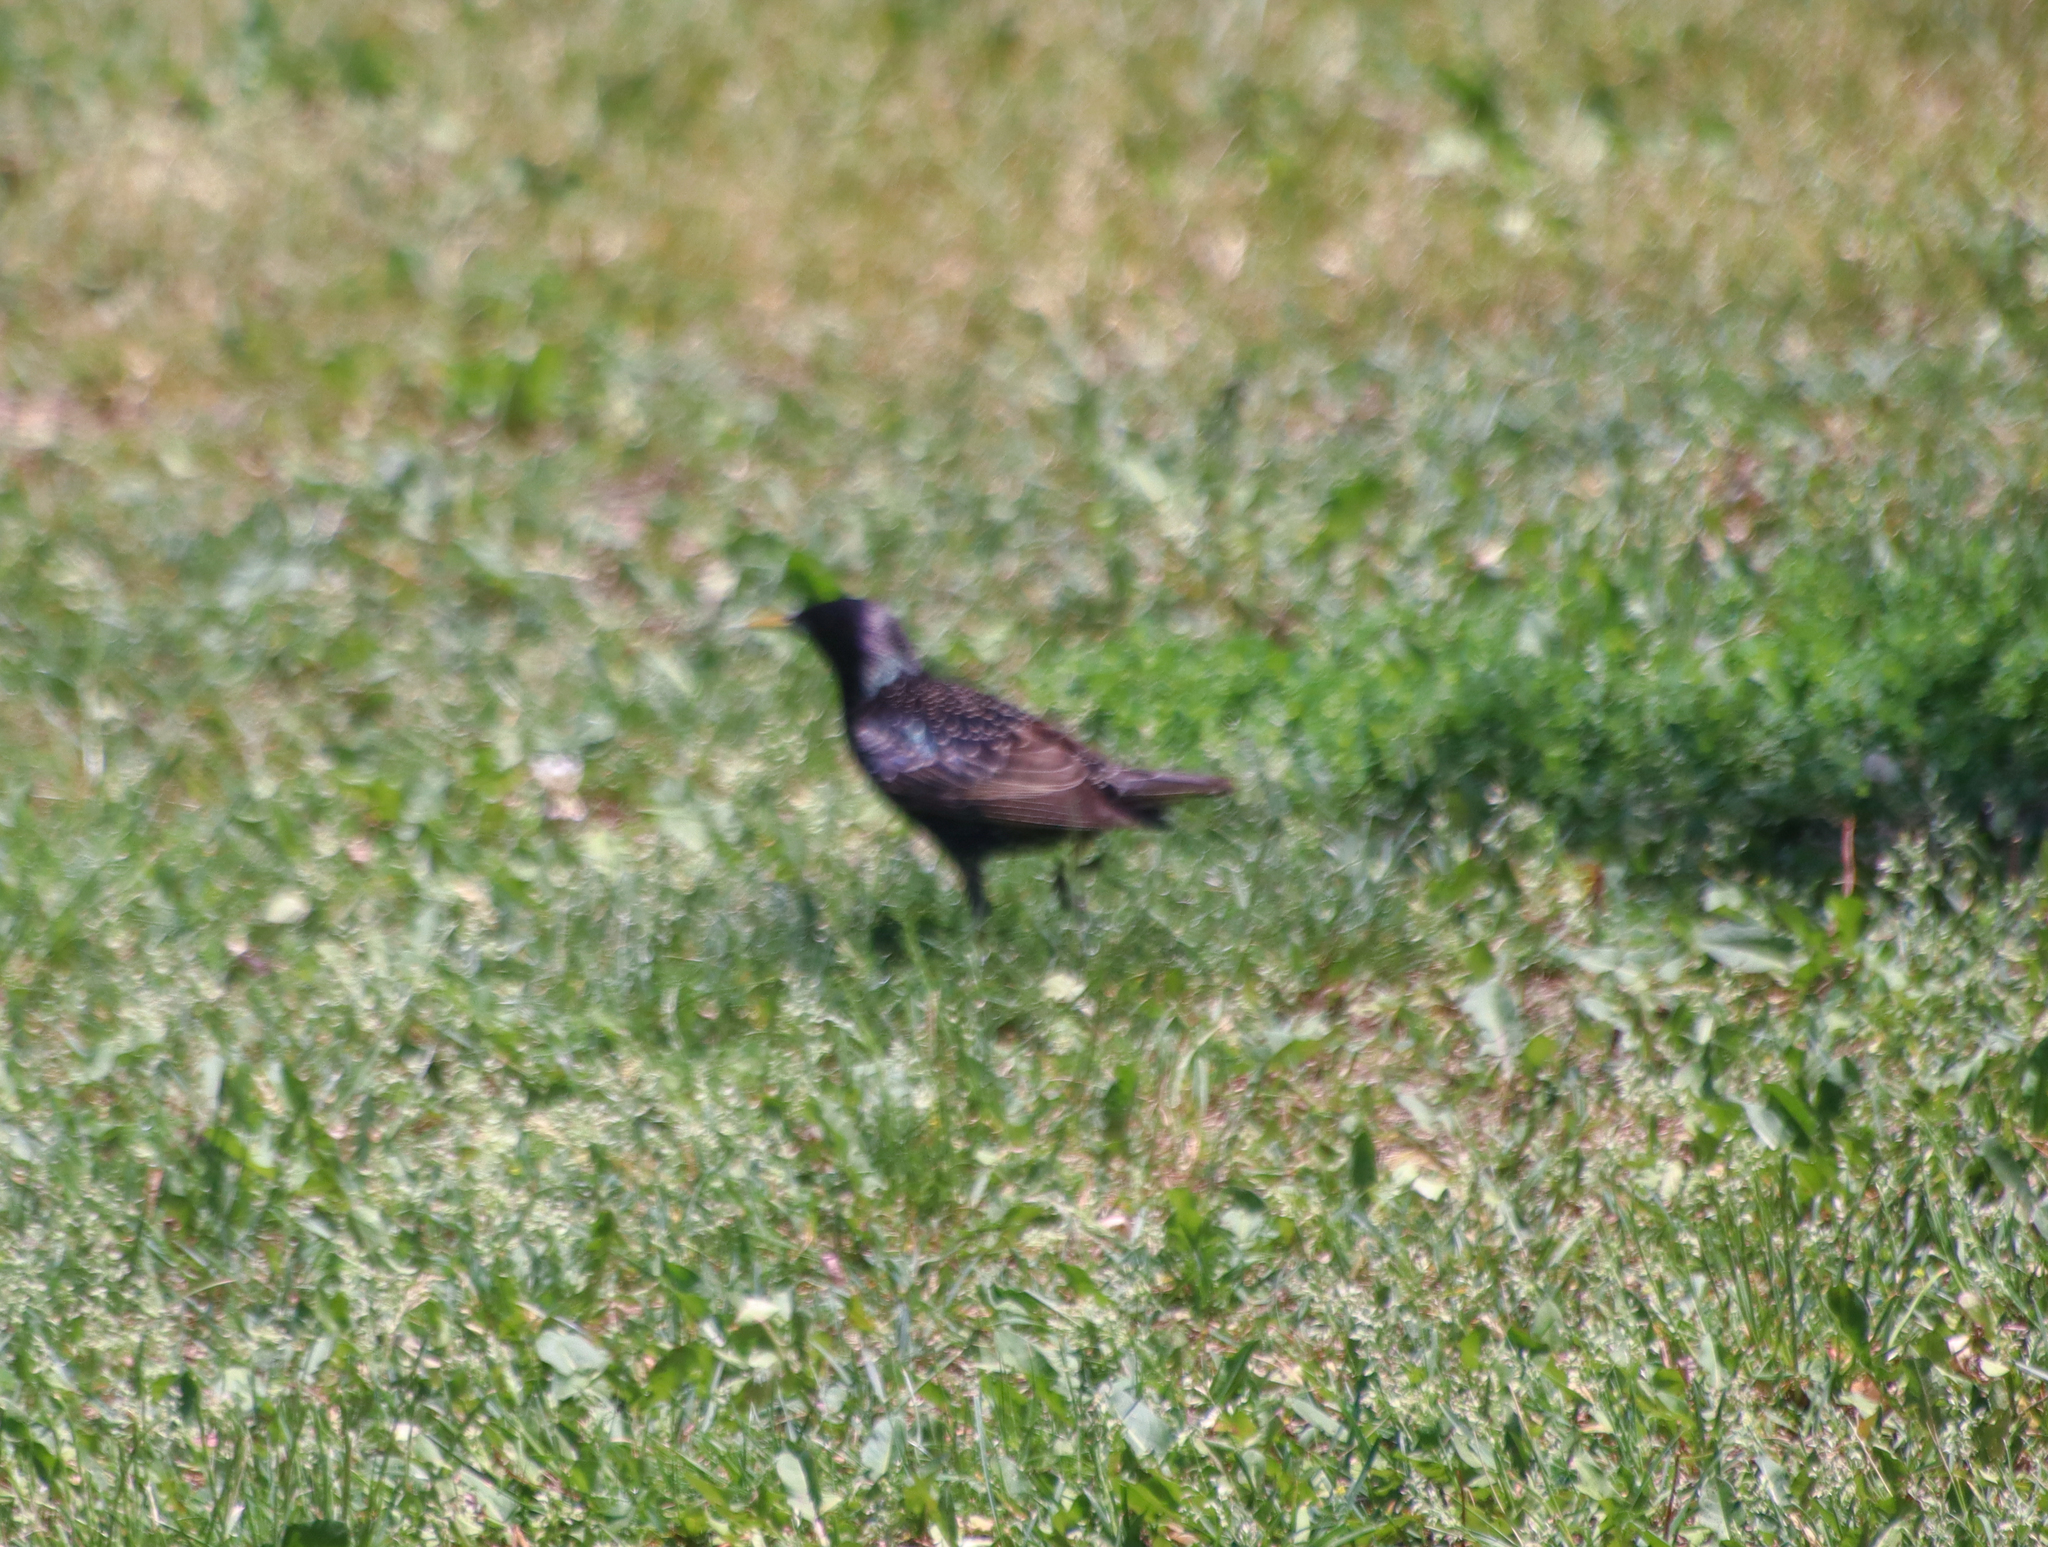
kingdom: Animalia
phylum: Chordata
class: Aves
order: Passeriformes
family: Sturnidae
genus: Sturnus
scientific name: Sturnus vulgaris
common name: Common starling
